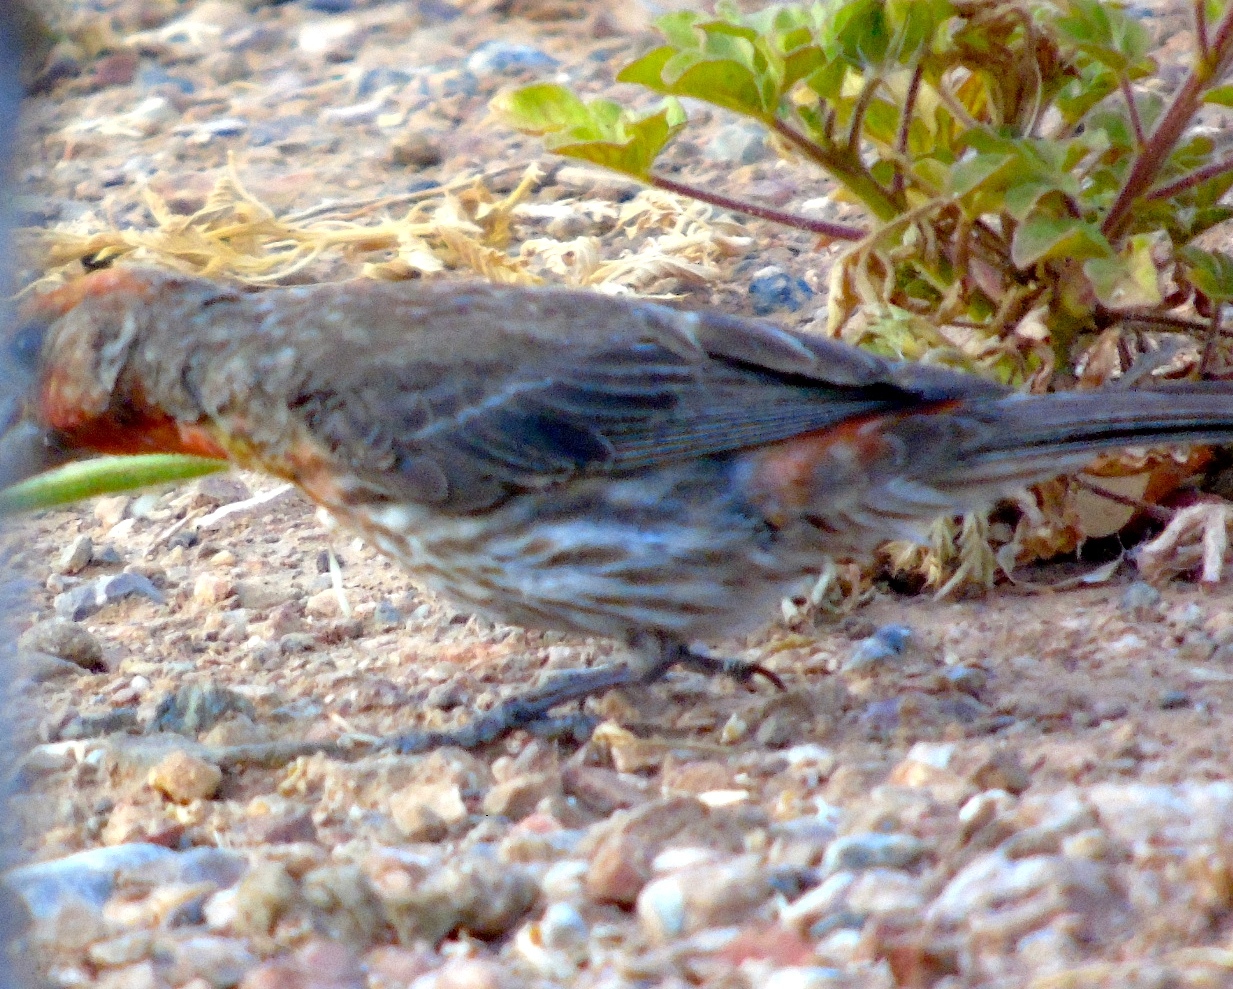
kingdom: Animalia
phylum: Chordata
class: Aves
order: Passeriformes
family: Fringillidae
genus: Haemorhous
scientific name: Haemorhous mexicanus
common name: House finch
